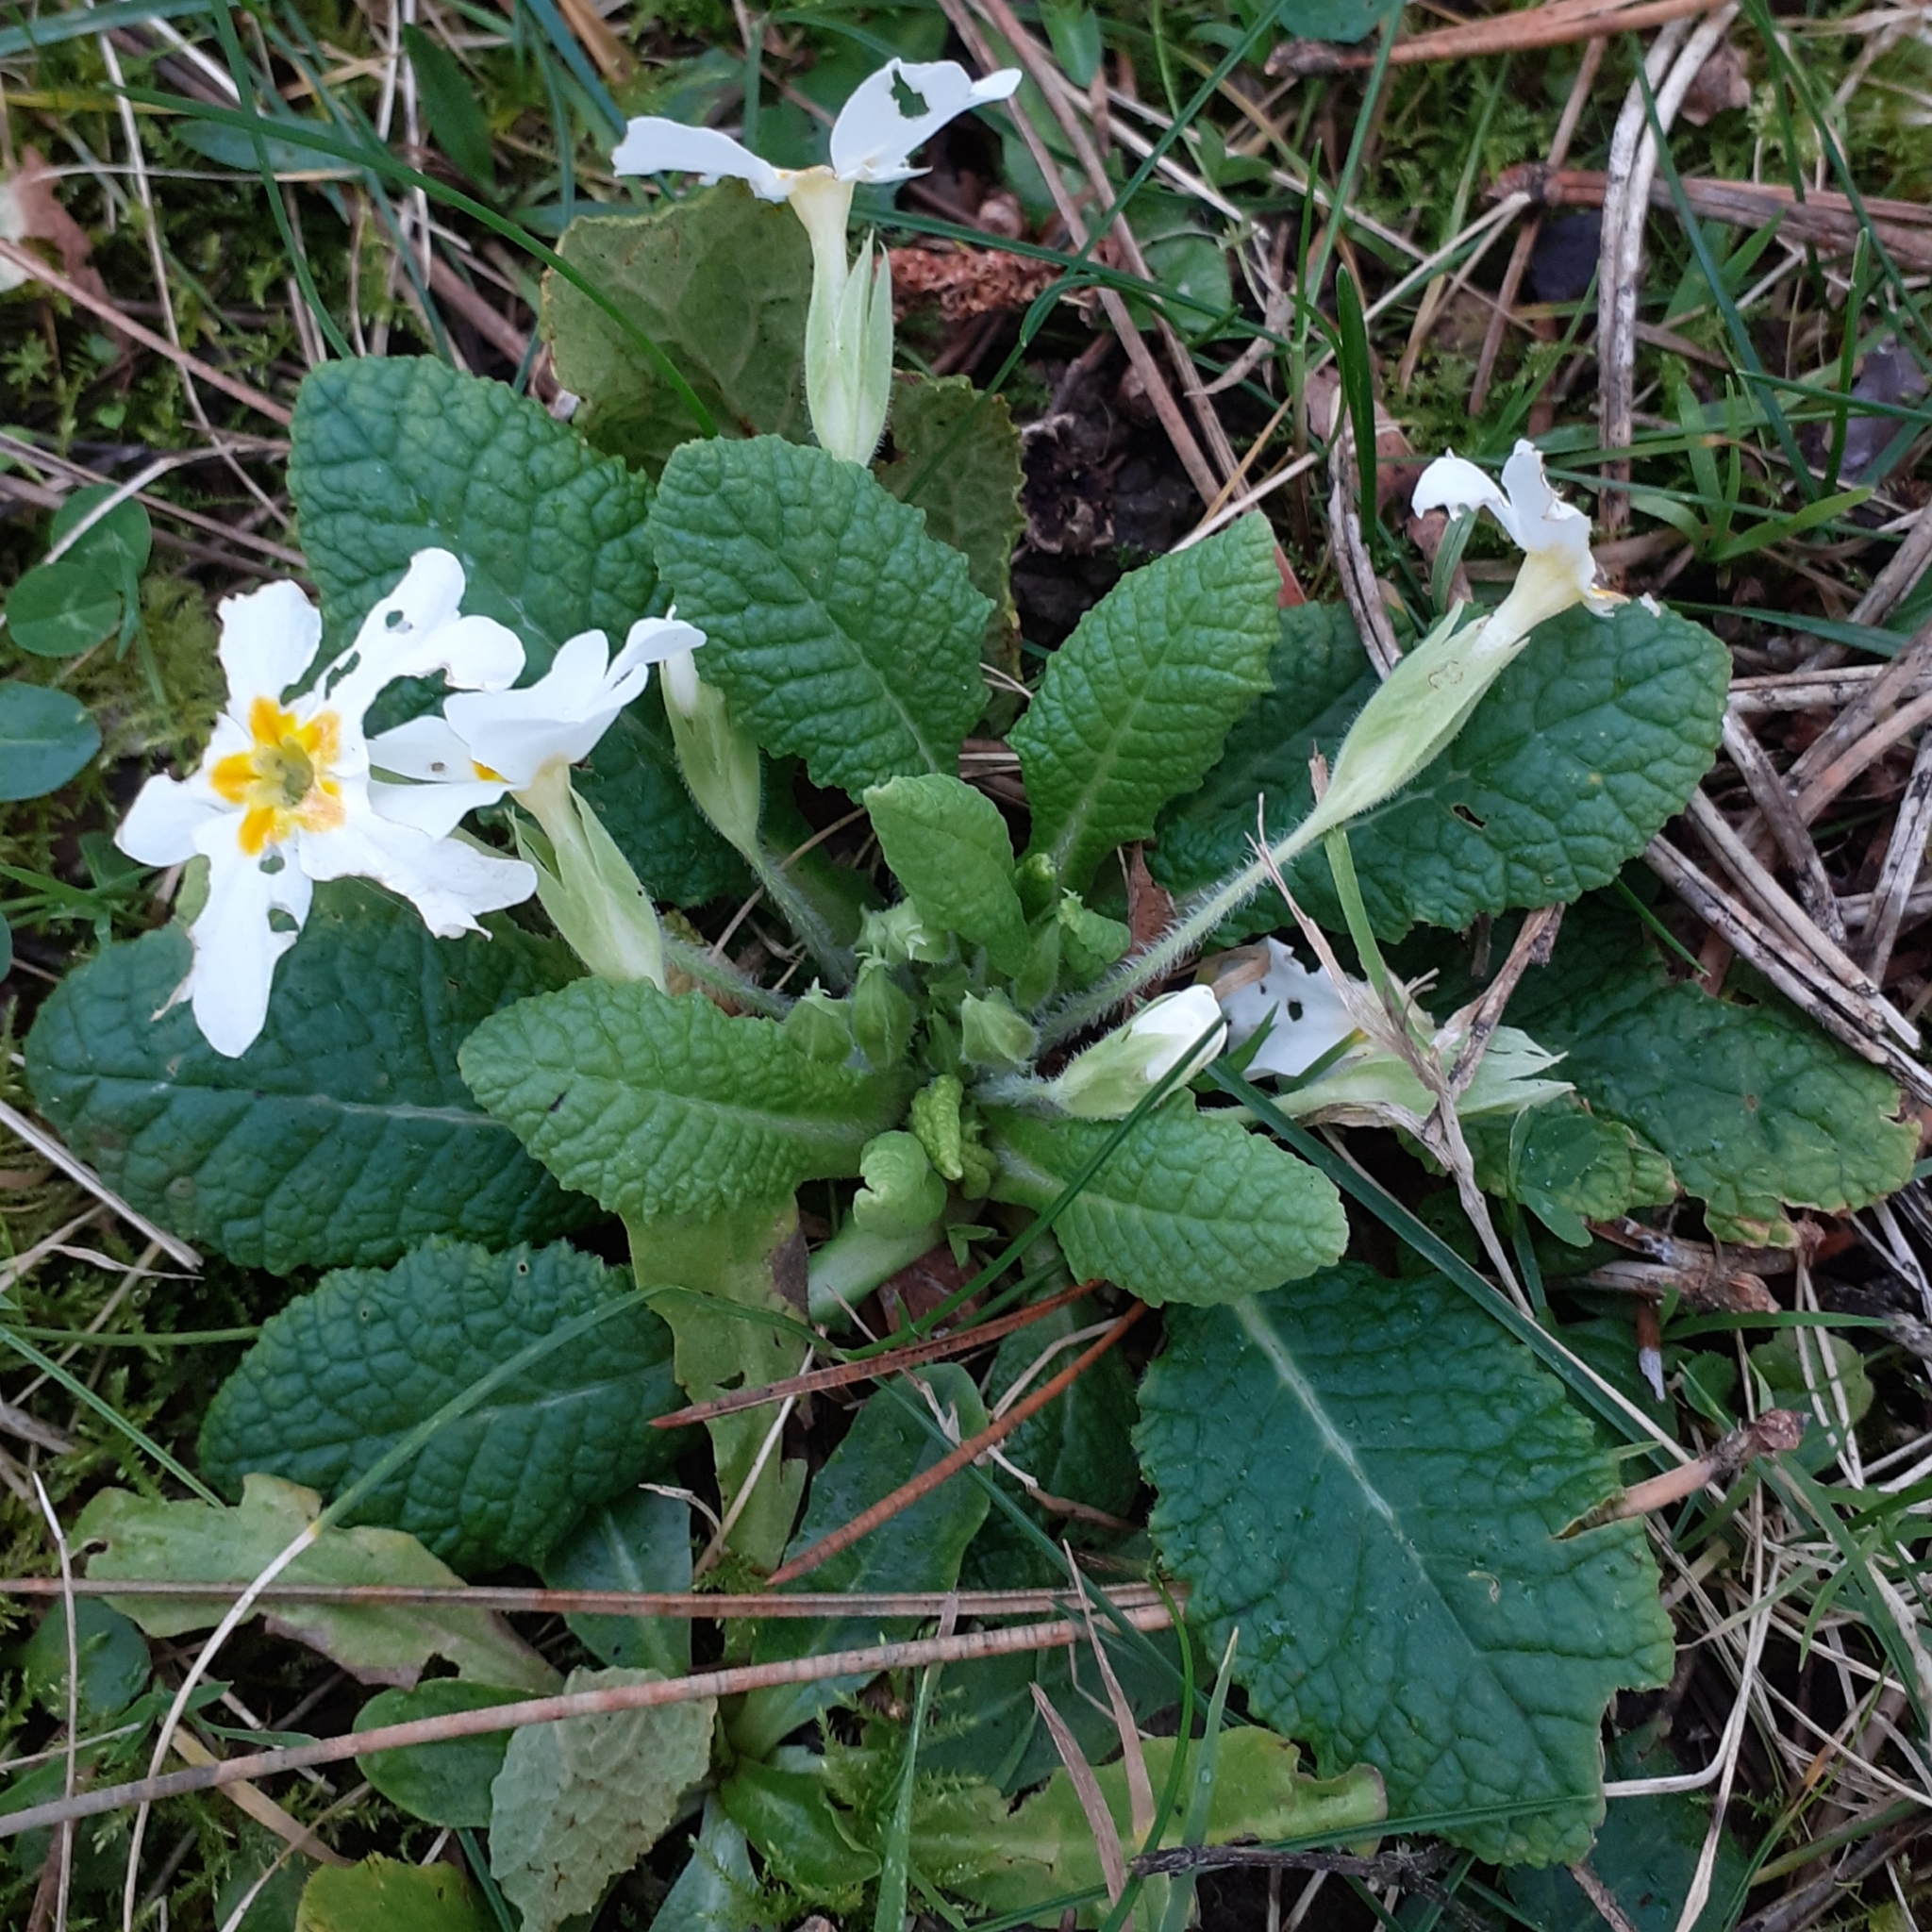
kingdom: Plantae
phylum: Tracheophyta
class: Magnoliopsida
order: Ericales
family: Primulaceae
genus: Primula
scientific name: Primula vulgaris
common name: Primrose
